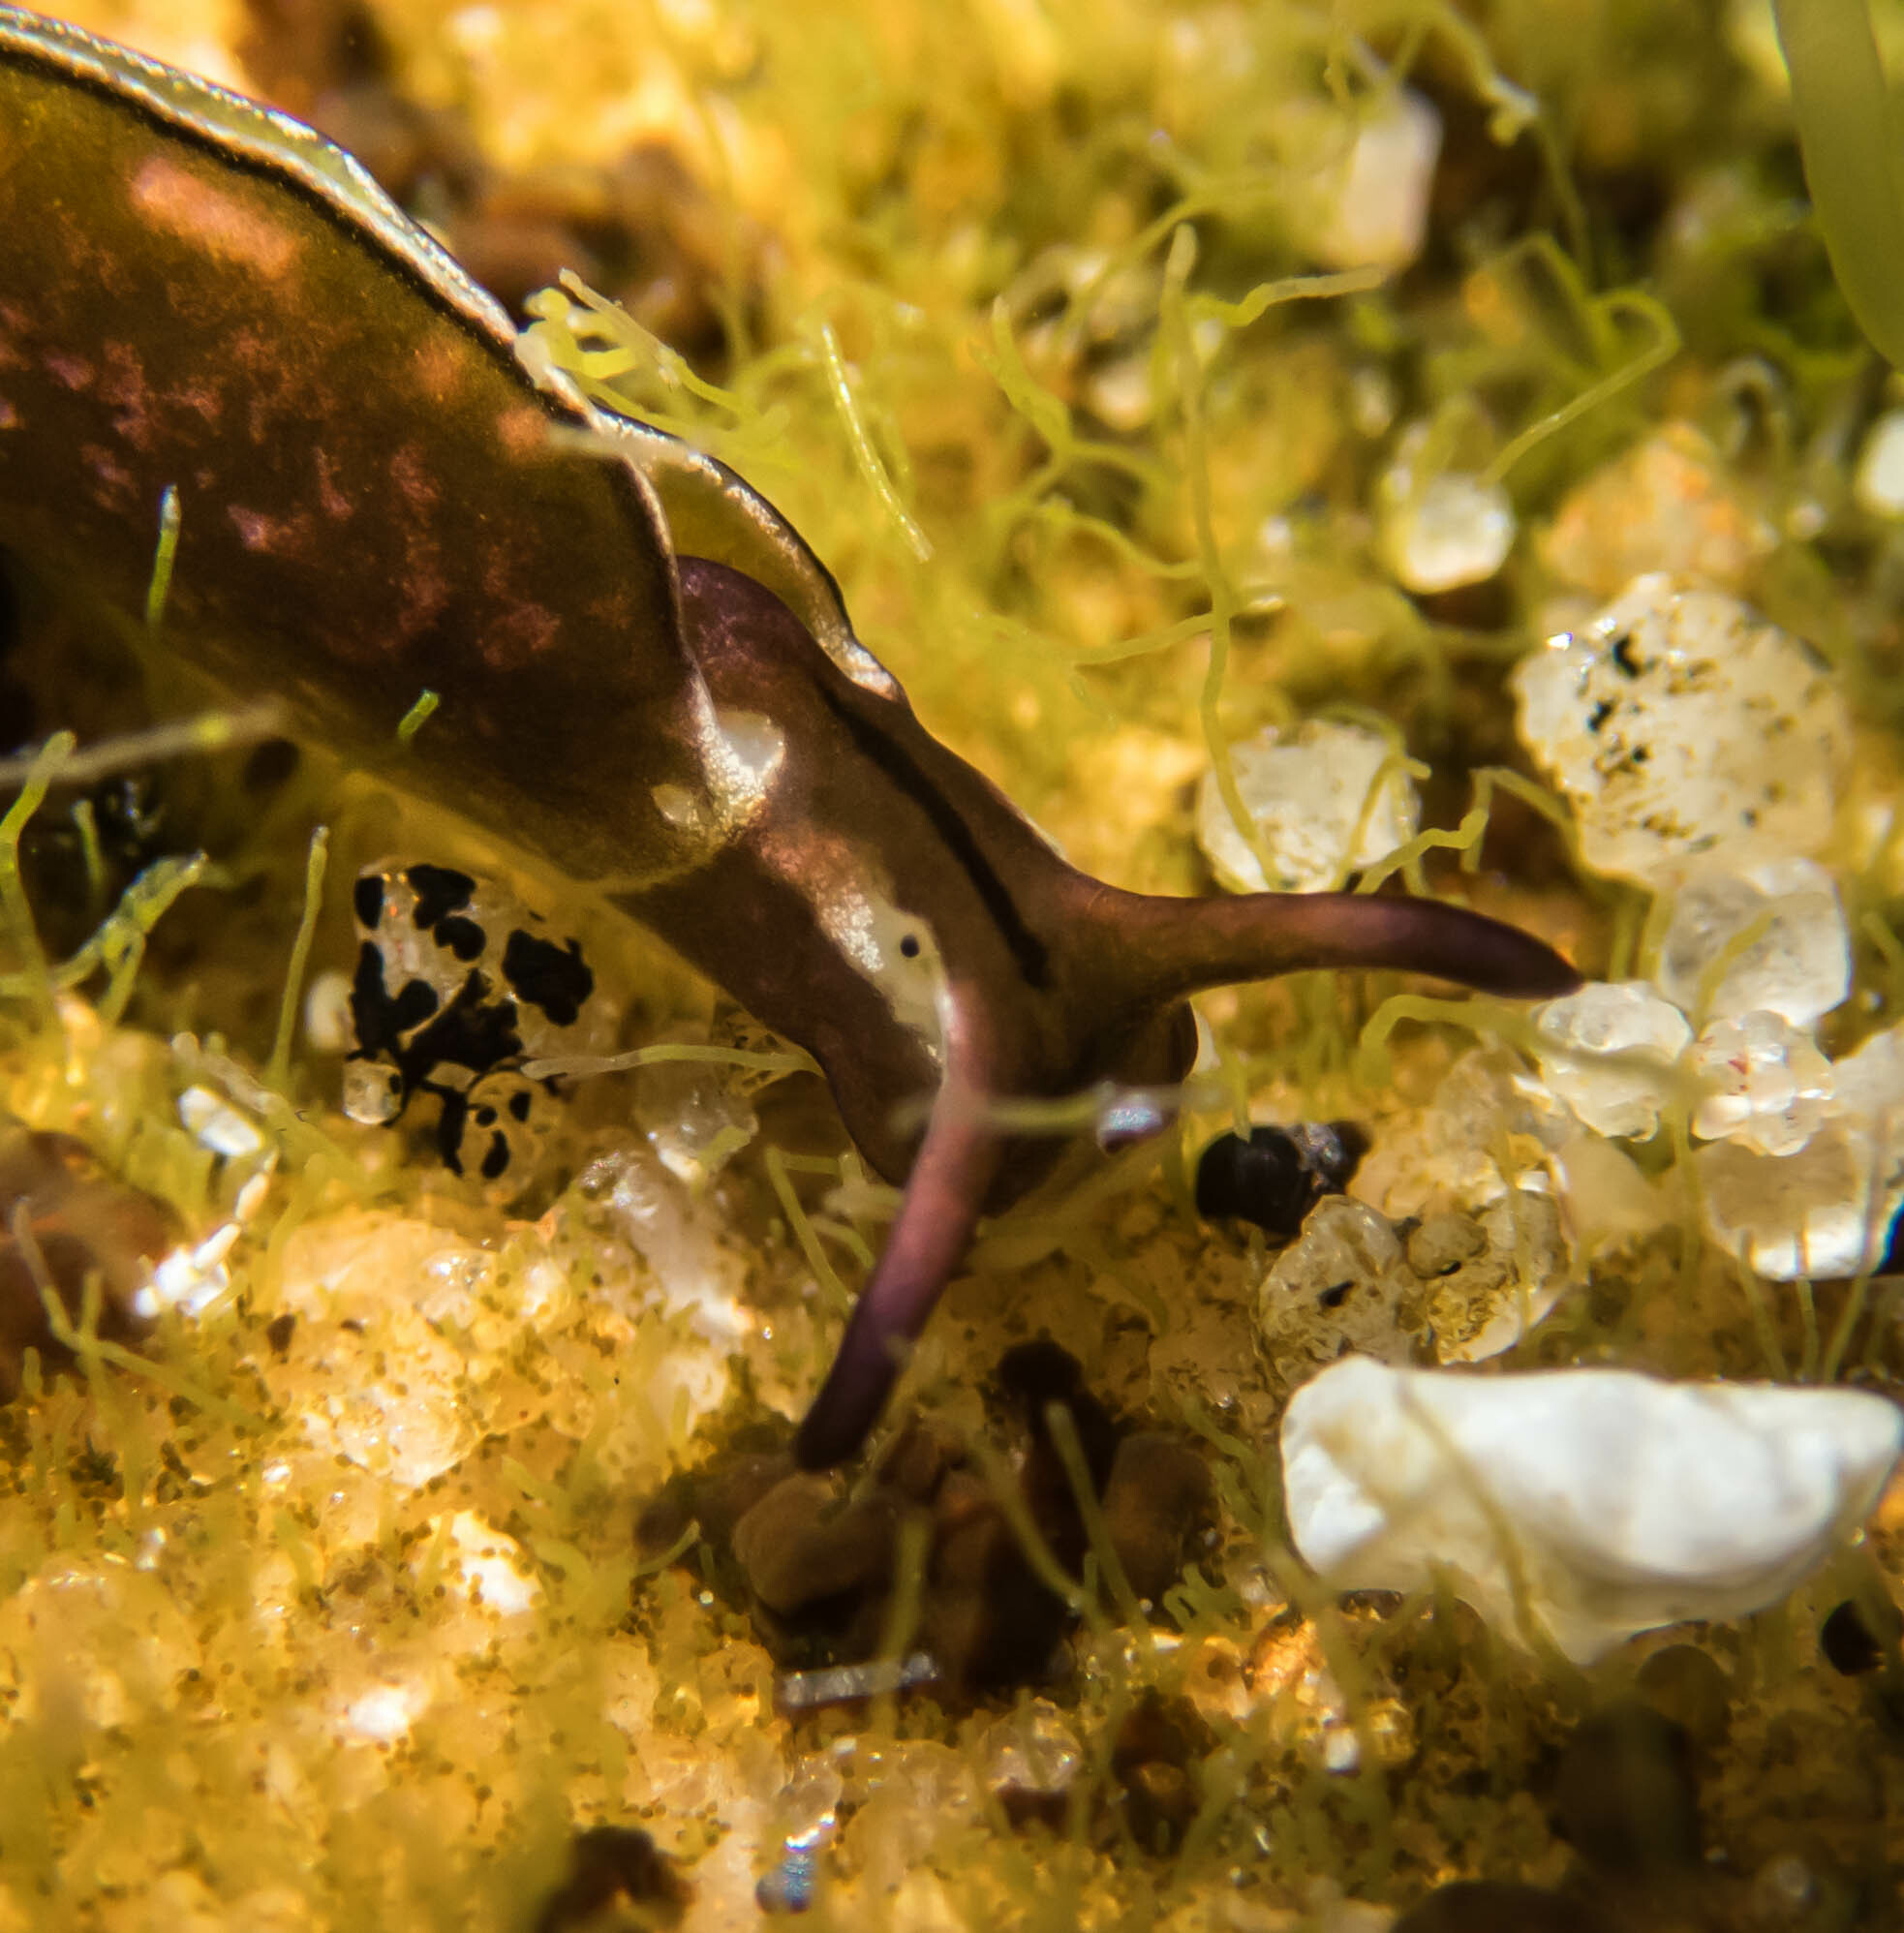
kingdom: Animalia
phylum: Mollusca
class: Gastropoda
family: Plakobranchidae
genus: Elysia
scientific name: Elysia coodgeensis
